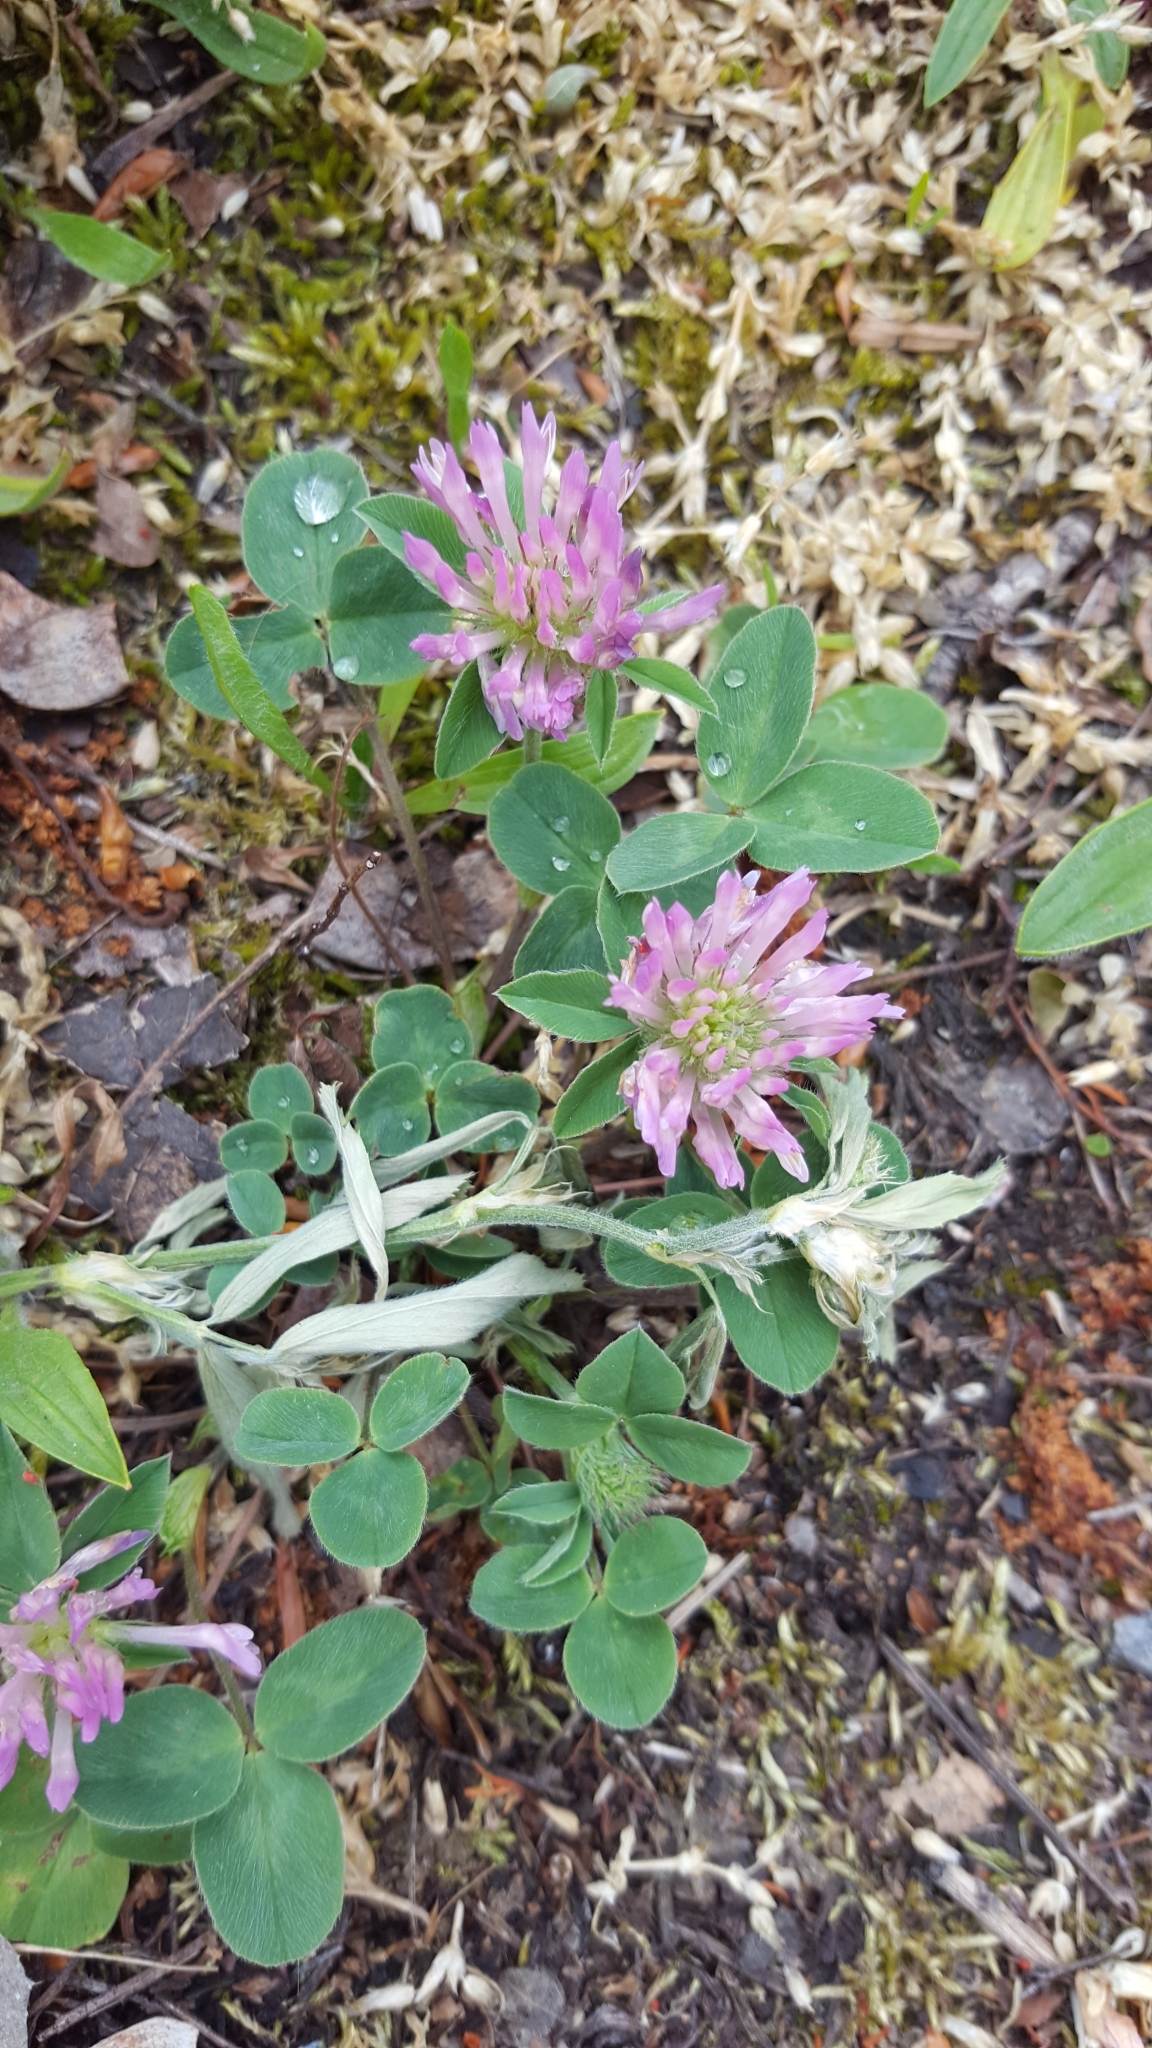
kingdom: Plantae
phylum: Tracheophyta
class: Magnoliopsida
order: Fabales
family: Fabaceae
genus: Trifolium
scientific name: Trifolium pratense
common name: Red clover
